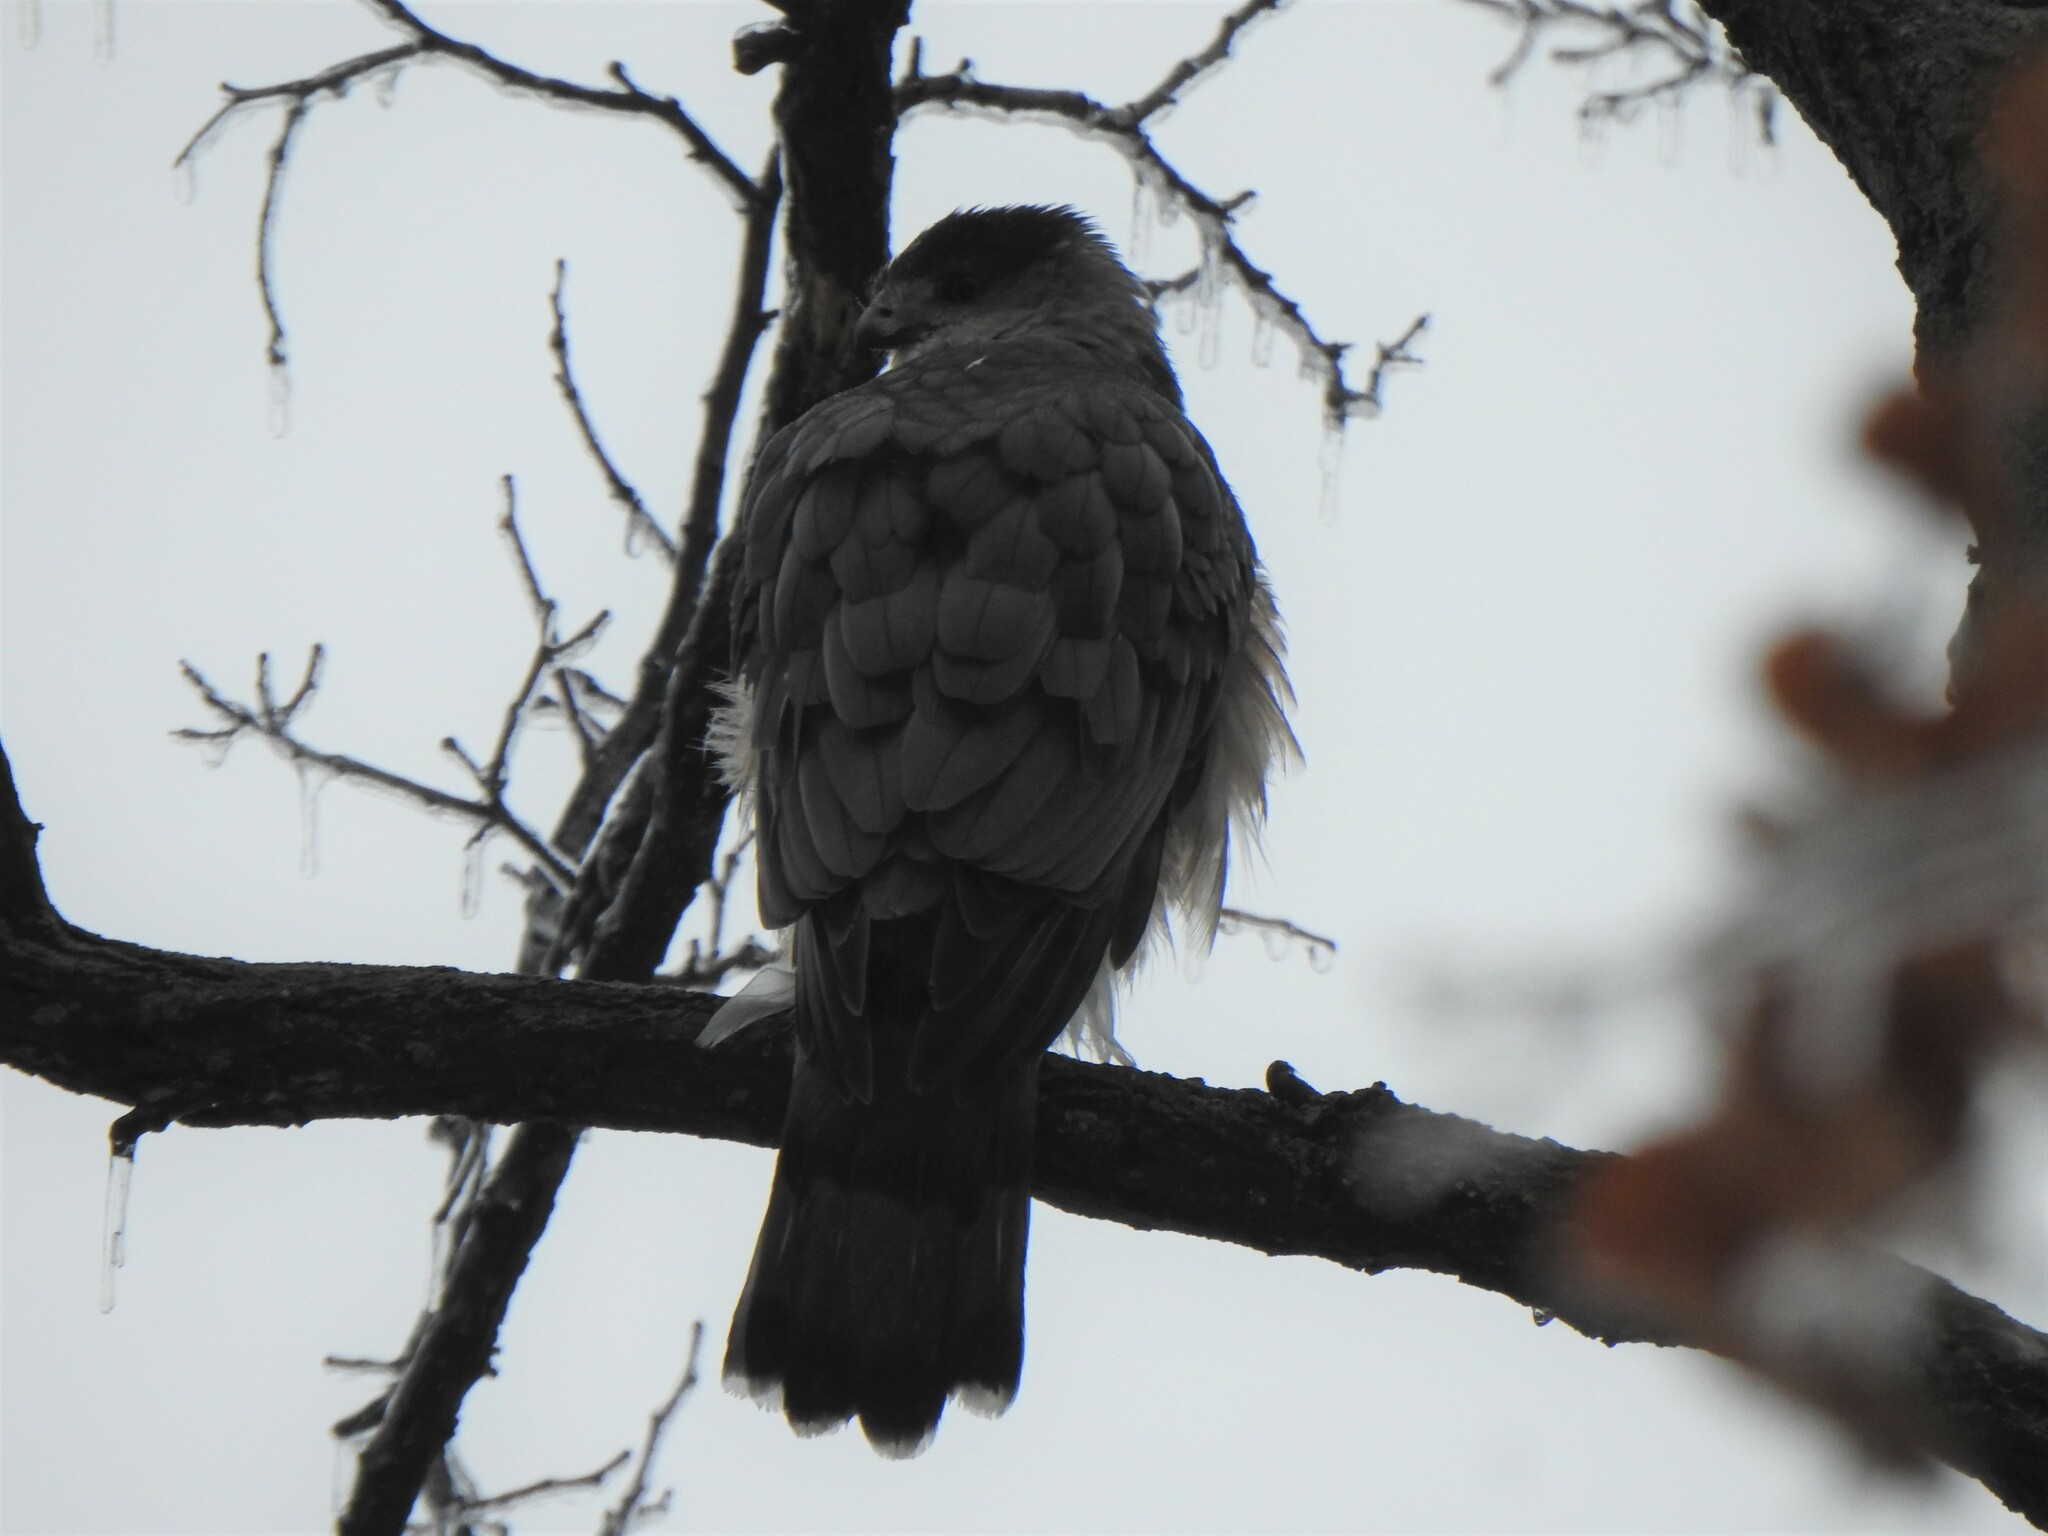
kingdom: Animalia
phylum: Chordata
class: Aves
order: Accipitriformes
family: Accipitridae
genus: Accipiter
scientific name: Accipiter cooperii
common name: Cooper's hawk
